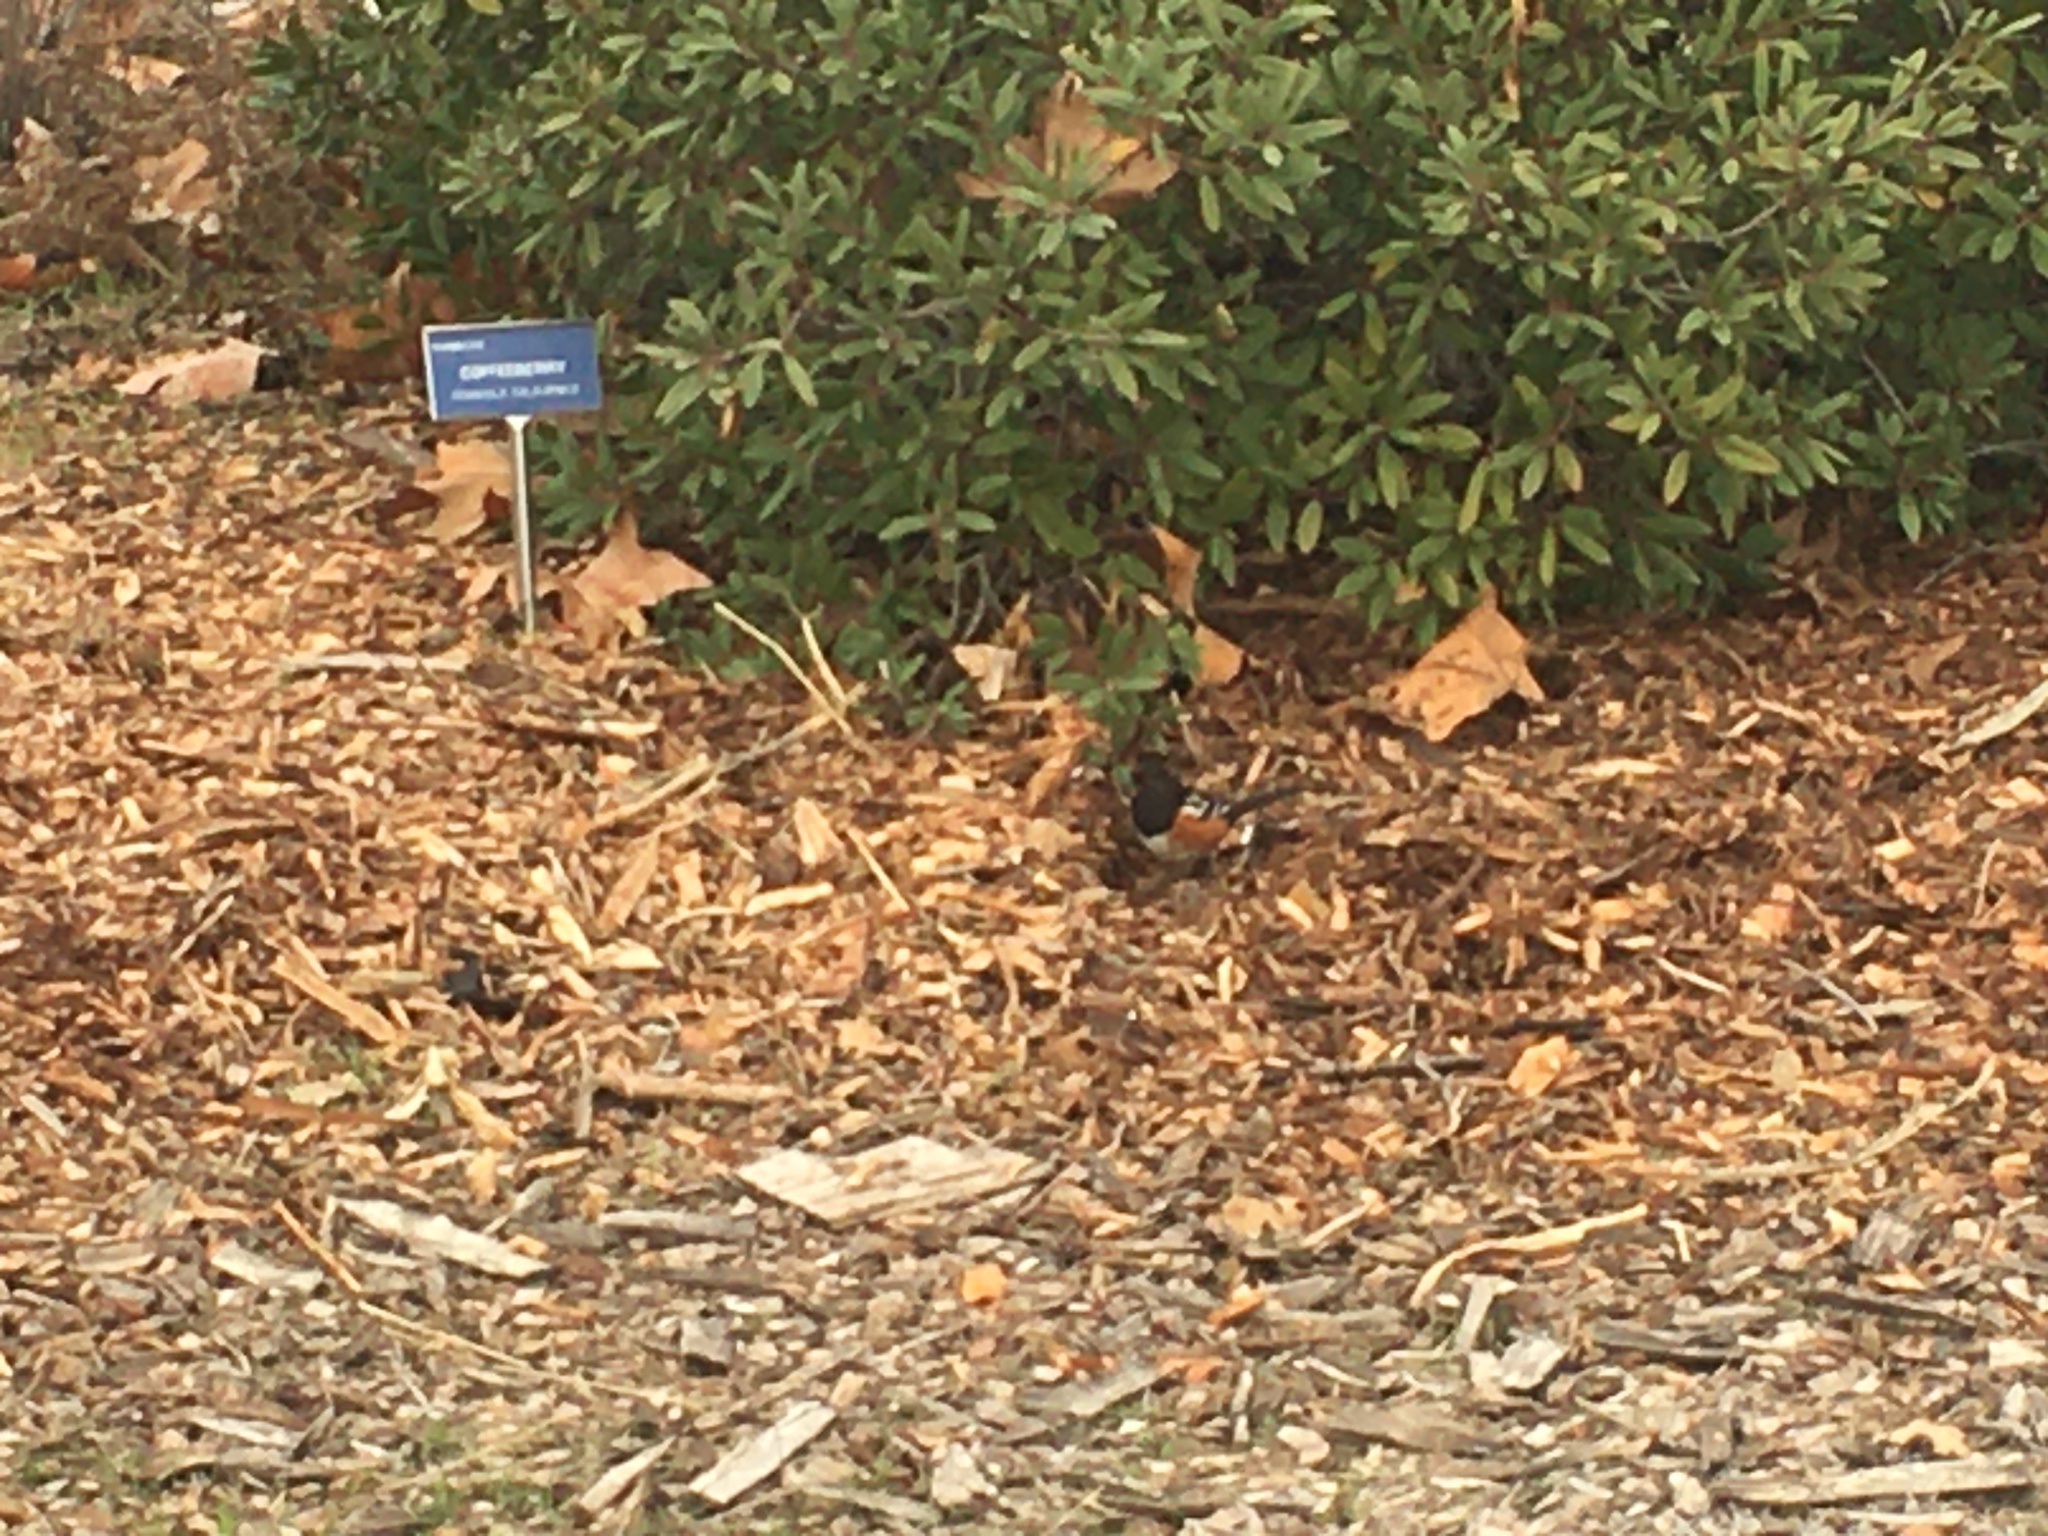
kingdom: Animalia
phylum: Chordata
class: Aves
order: Passeriformes
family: Passerellidae
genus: Pipilo
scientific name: Pipilo maculatus
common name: Spotted towhee
